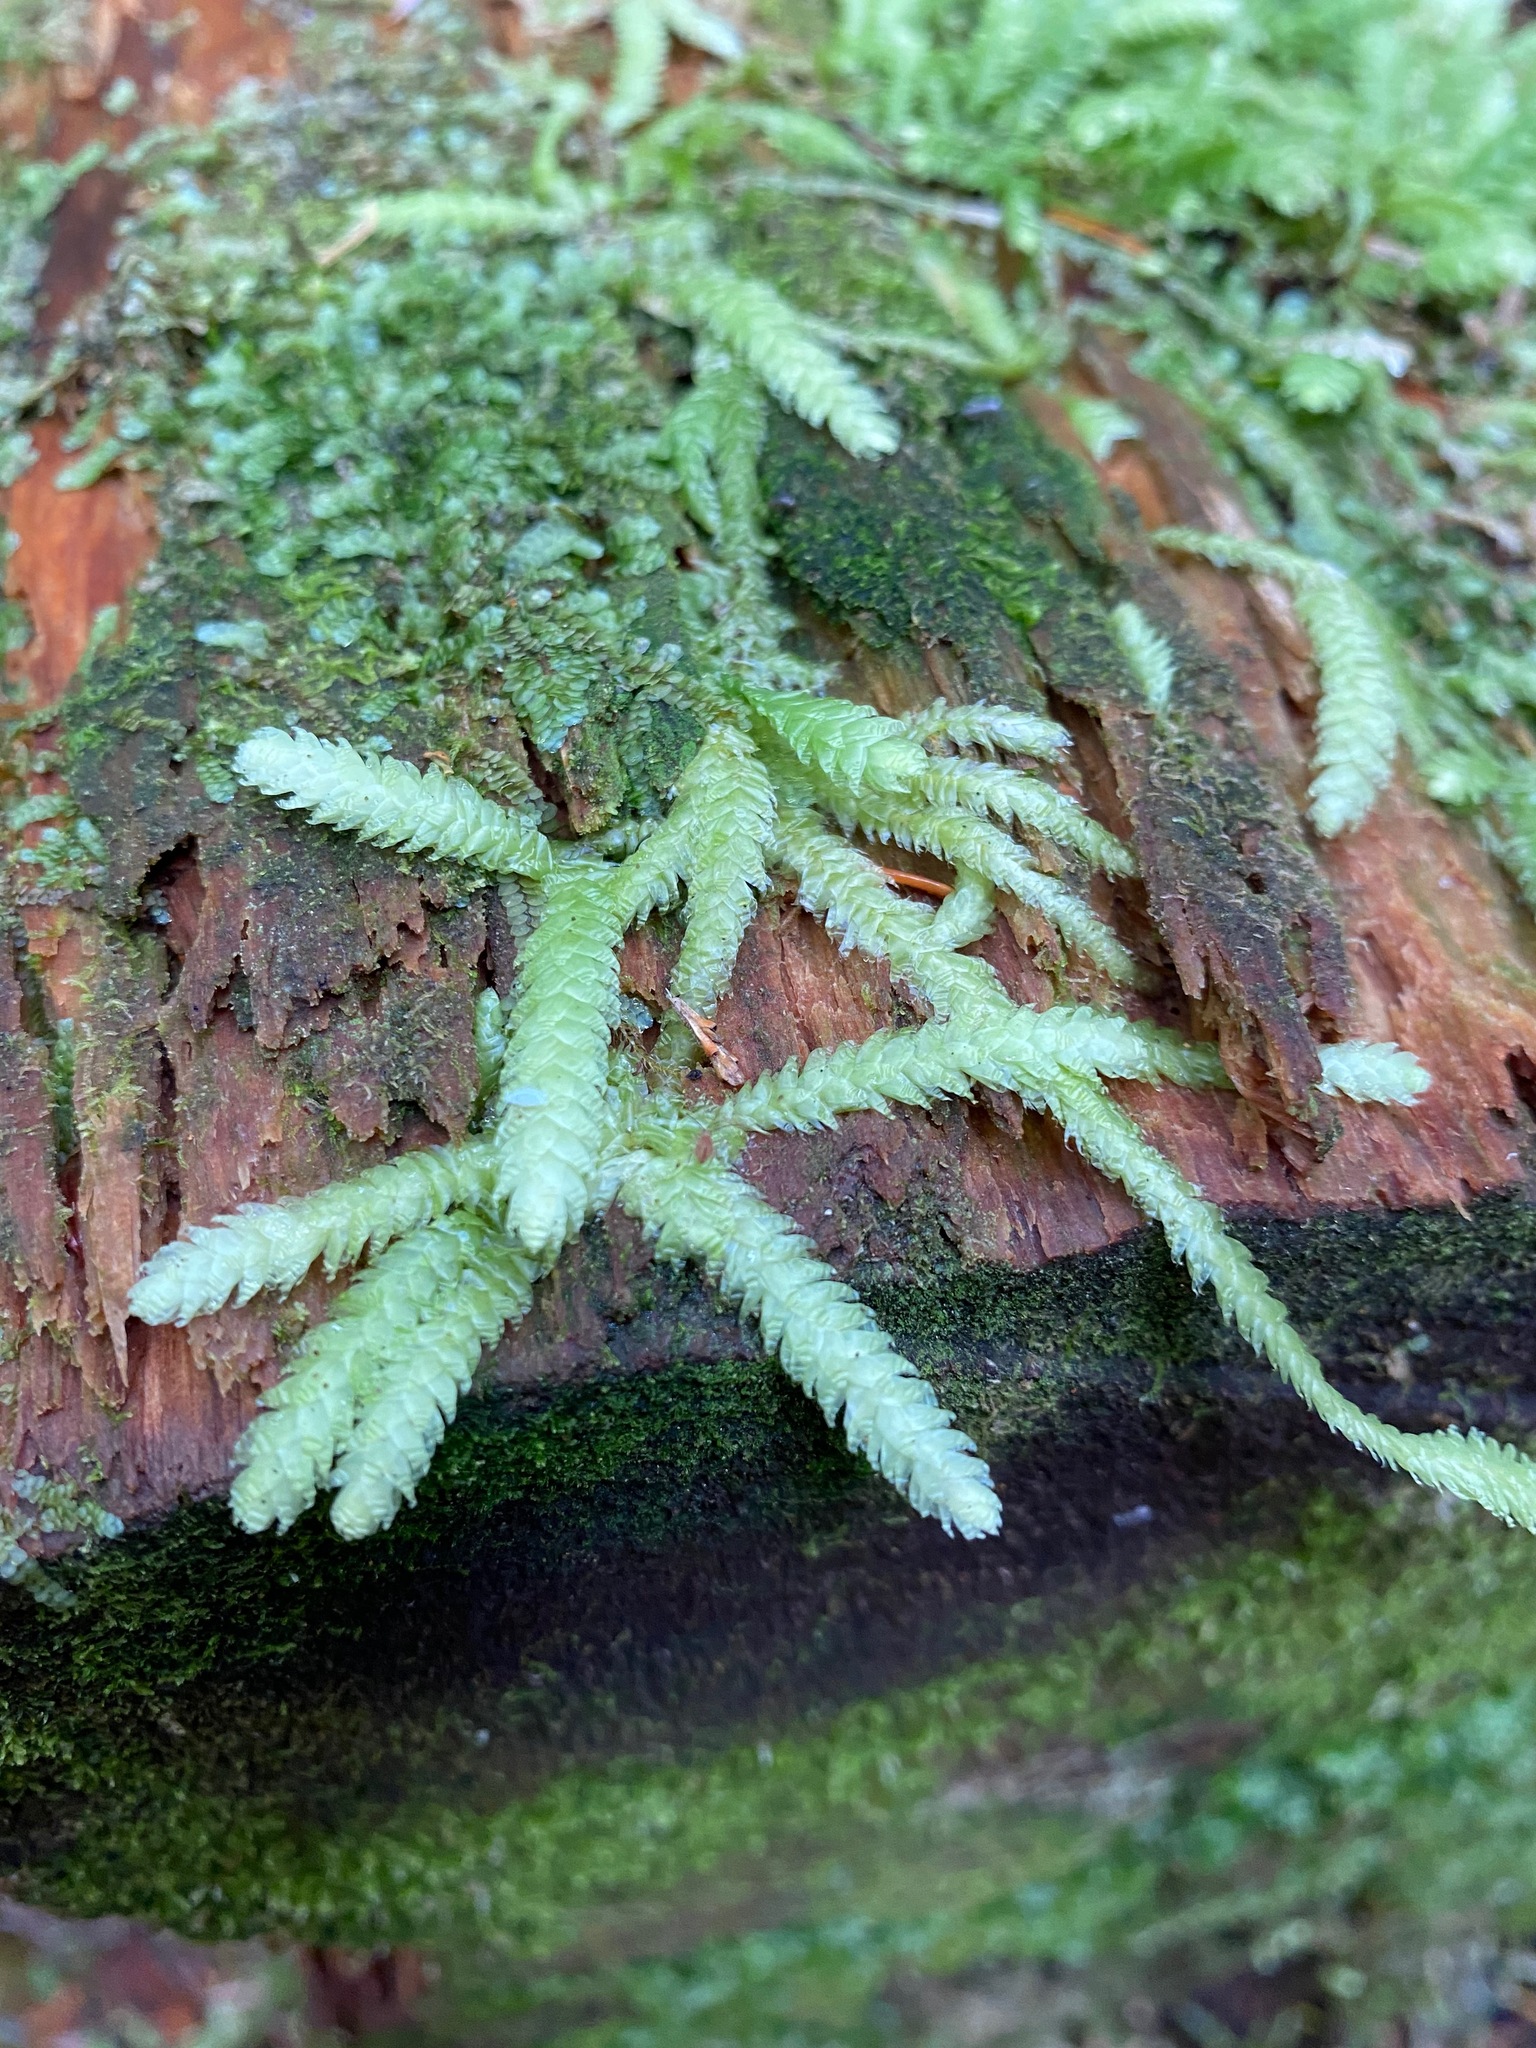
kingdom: Plantae
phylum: Bryophyta
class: Bryopsida
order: Hypnales
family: Plagiotheciaceae
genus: Plagiothecium
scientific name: Plagiothecium undulatum
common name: Waved silk-moss
